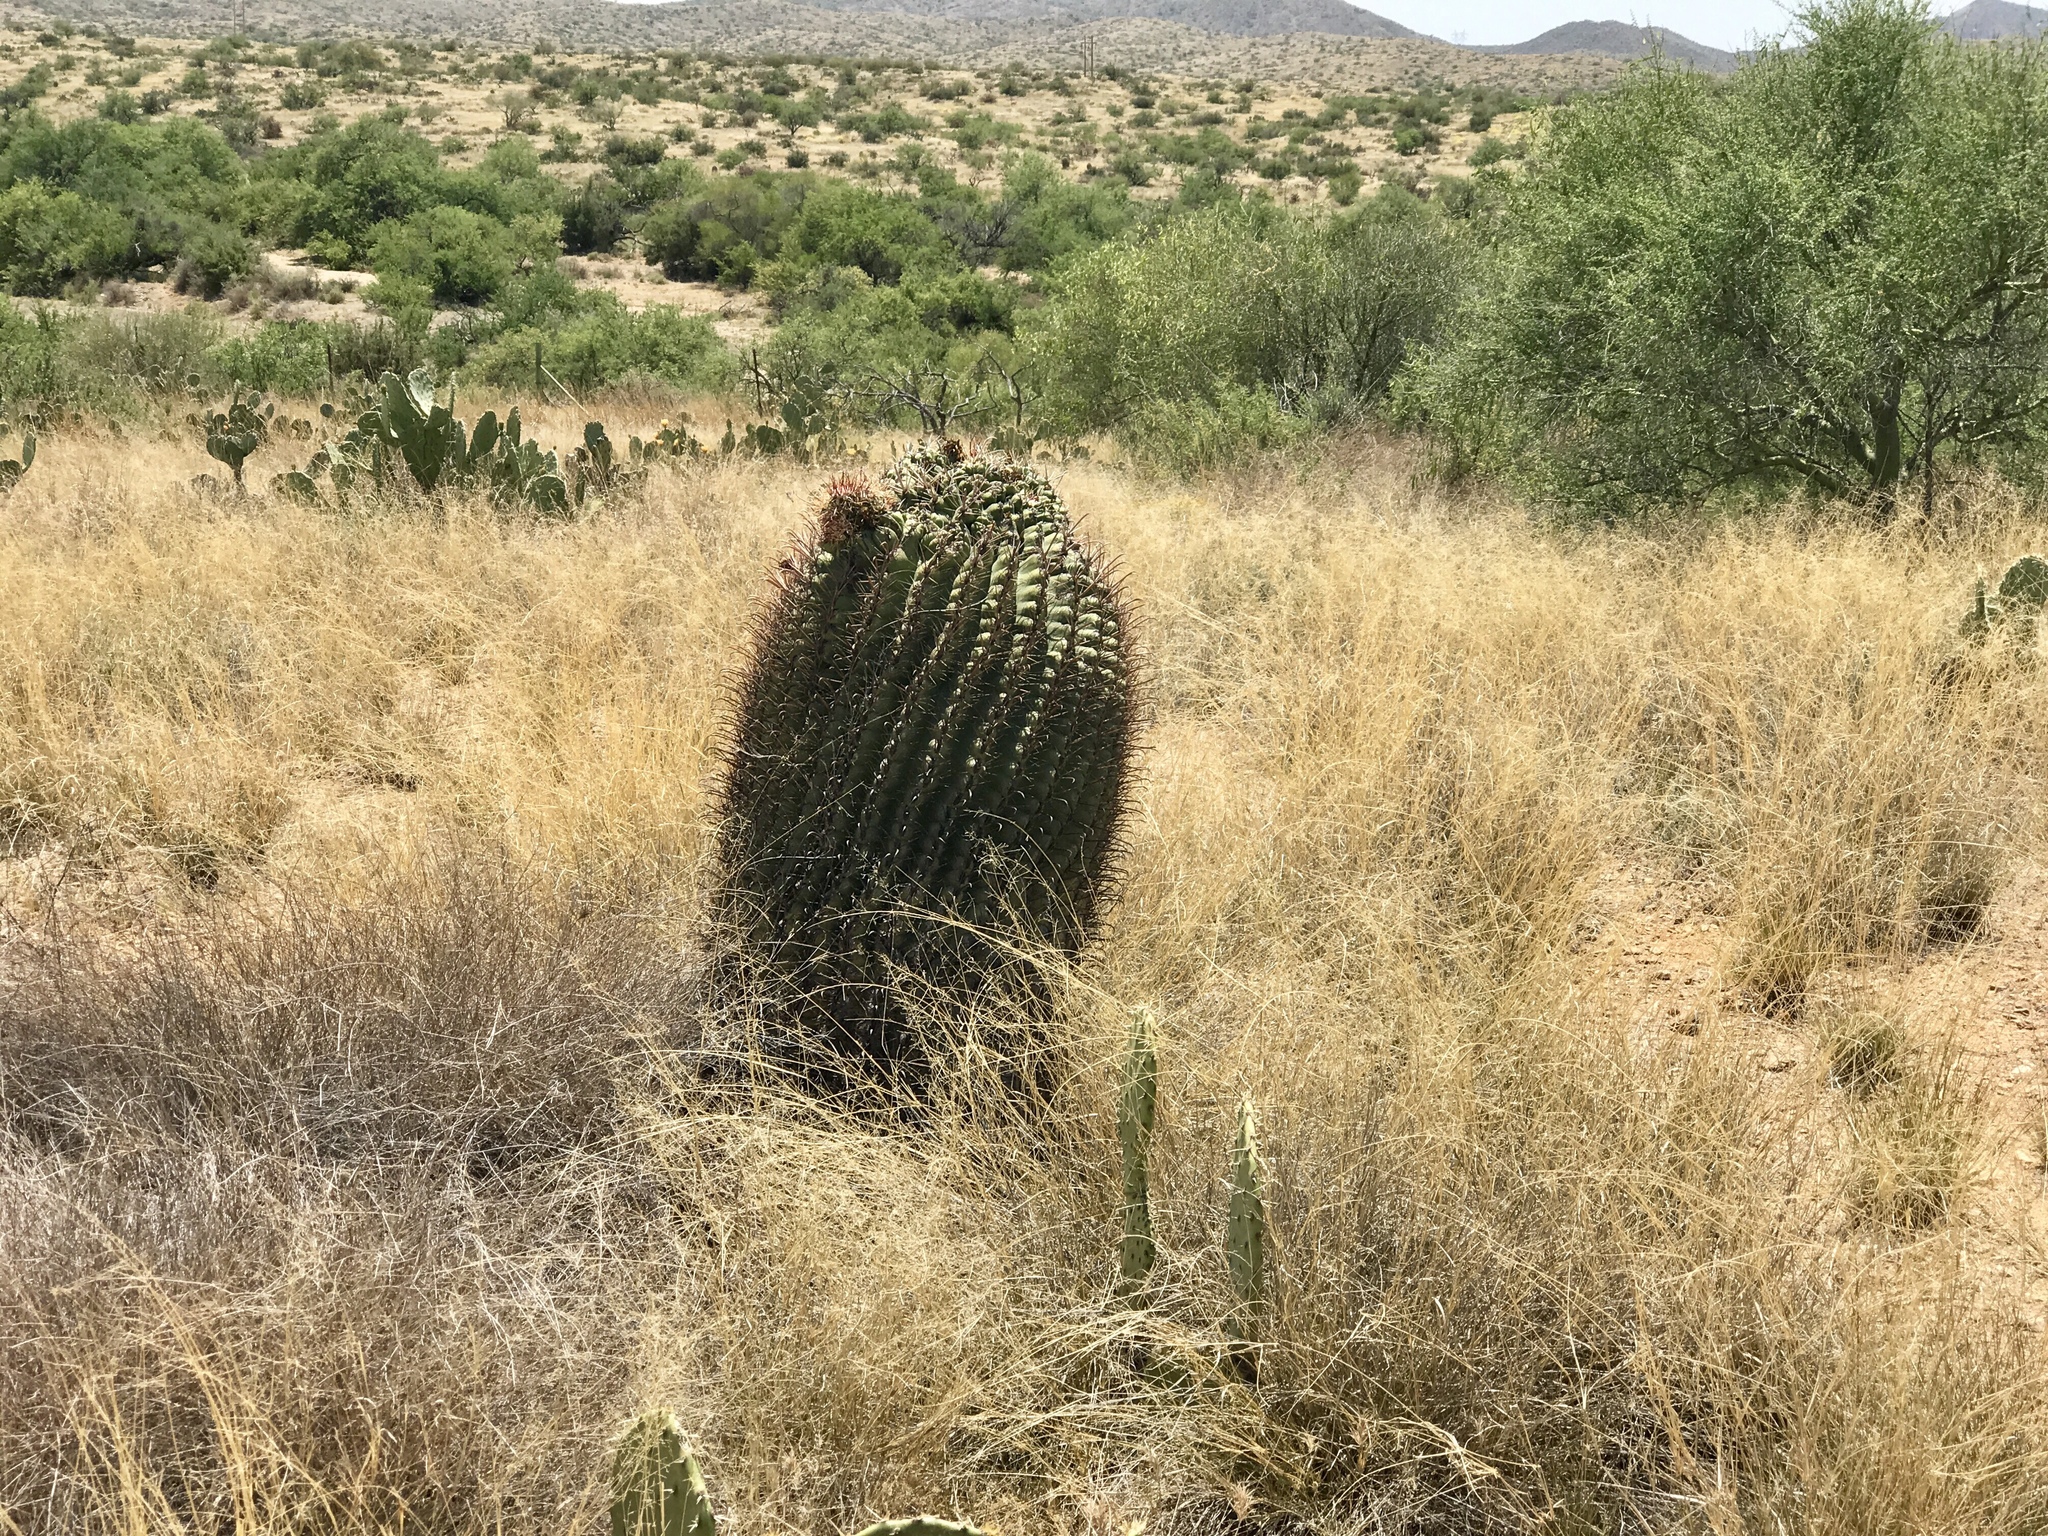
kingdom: Plantae
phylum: Tracheophyta
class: Magnoliopsida
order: Caryophyllales
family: Cactaceae
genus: Ferocactus
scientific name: Ferocactus wislizeni
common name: Candy barrel cactus
